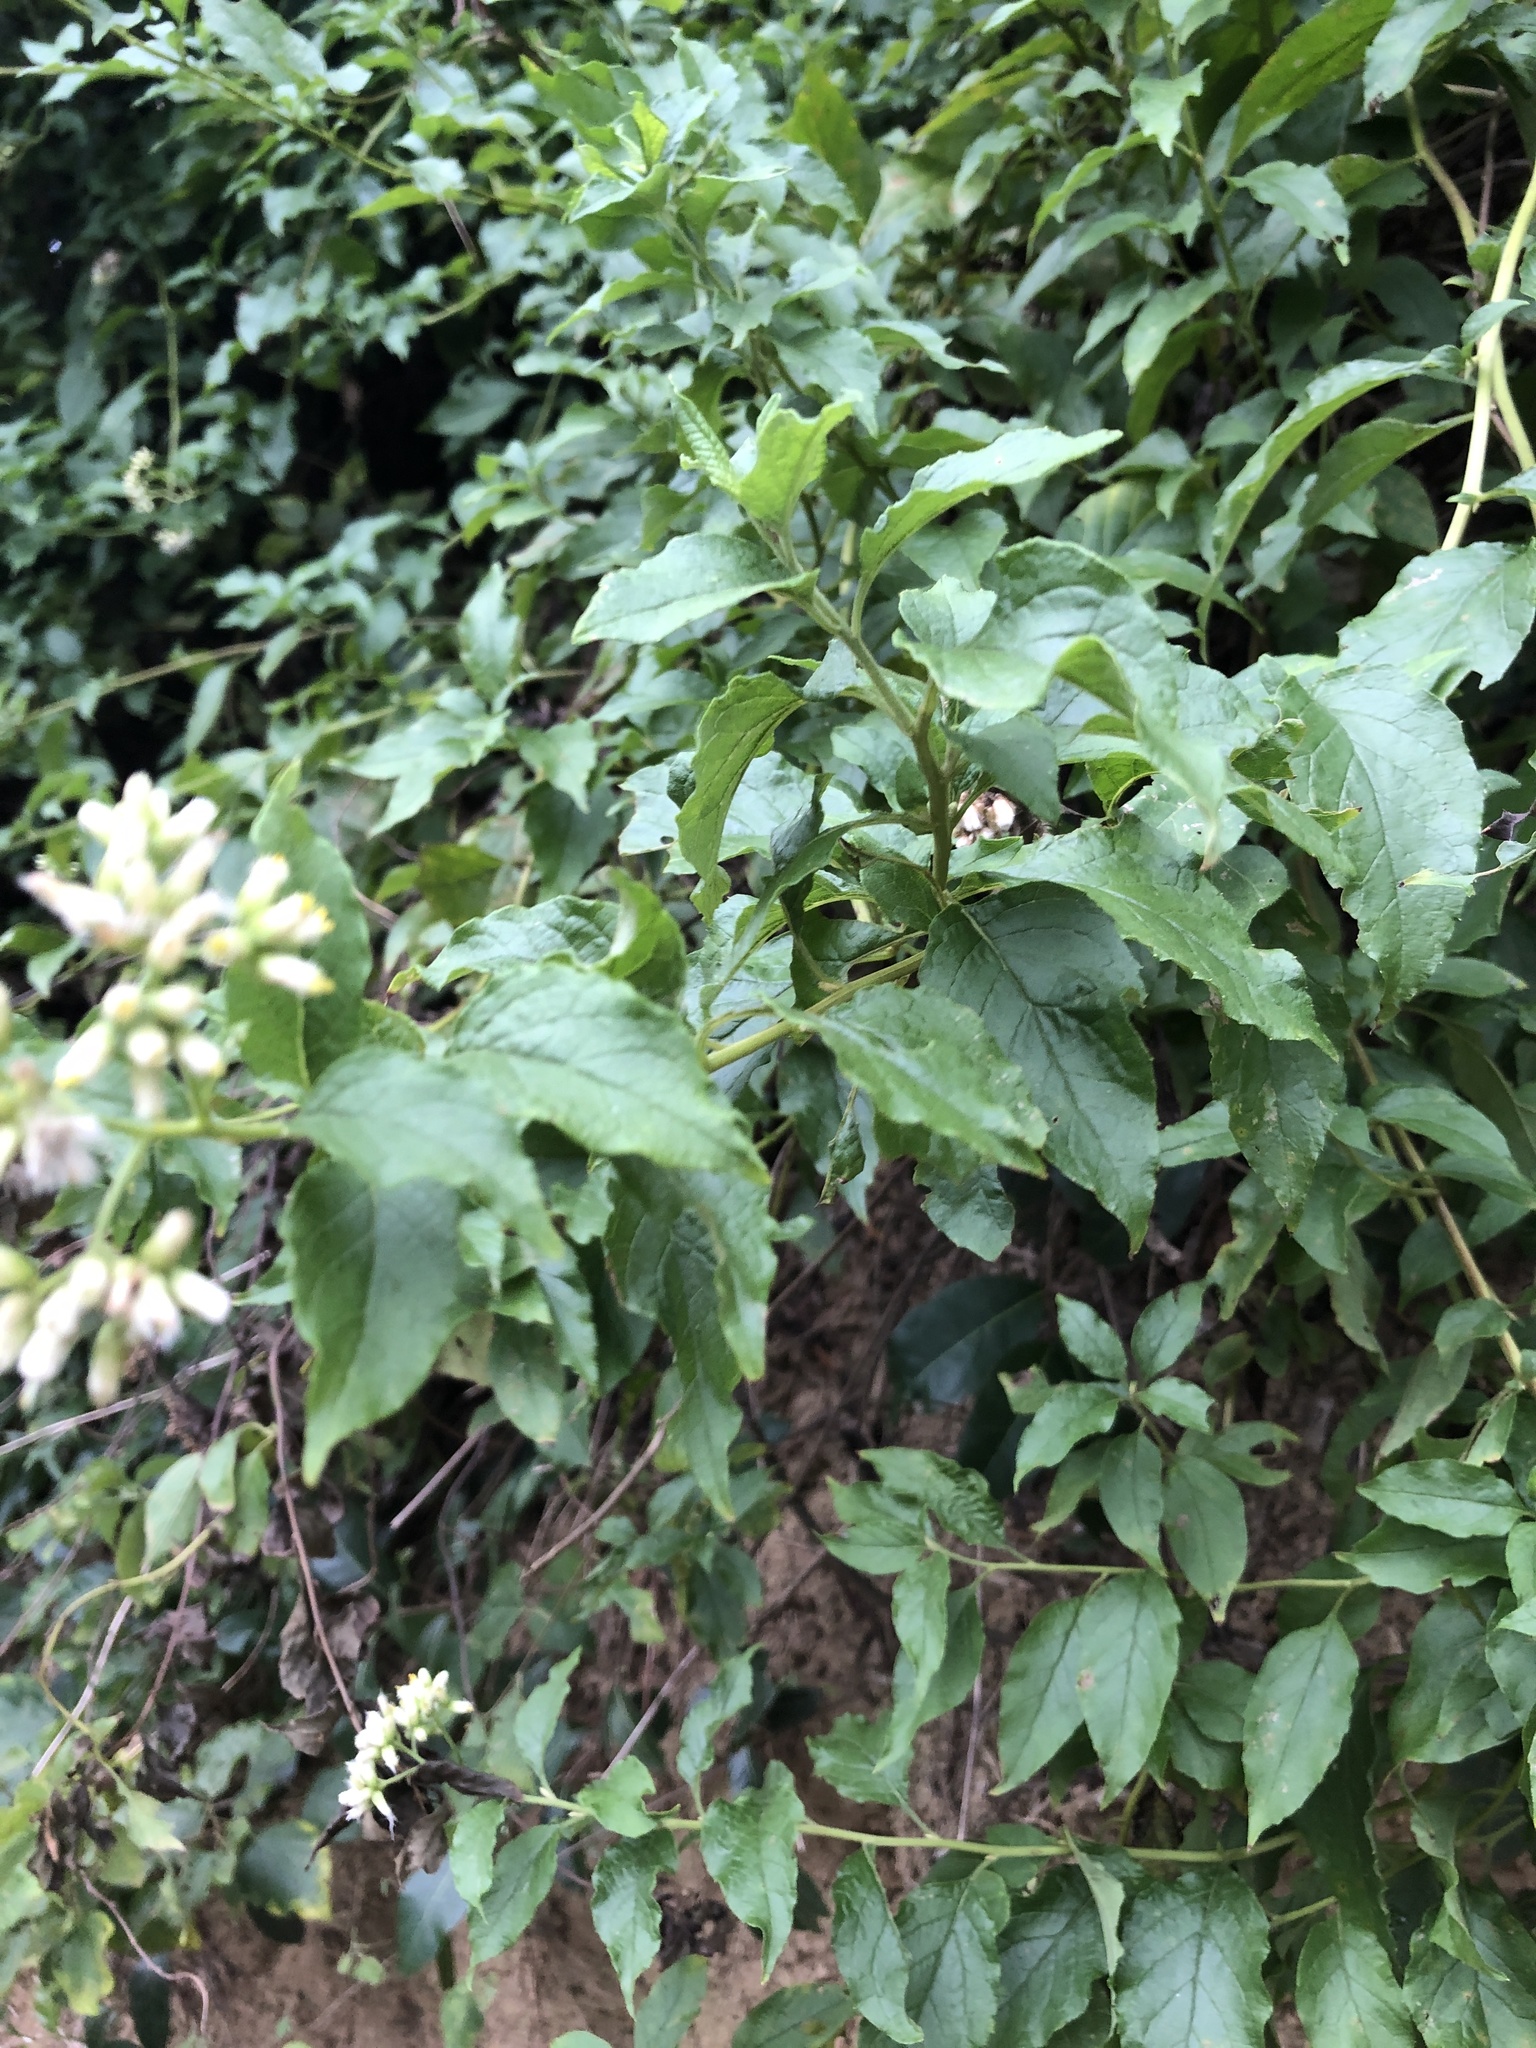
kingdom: Plantae
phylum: Tracheophyta
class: Magnoliopsida
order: Asterales
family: Asteraceae
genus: Microglossa
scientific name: Microglossa pyrifolia
